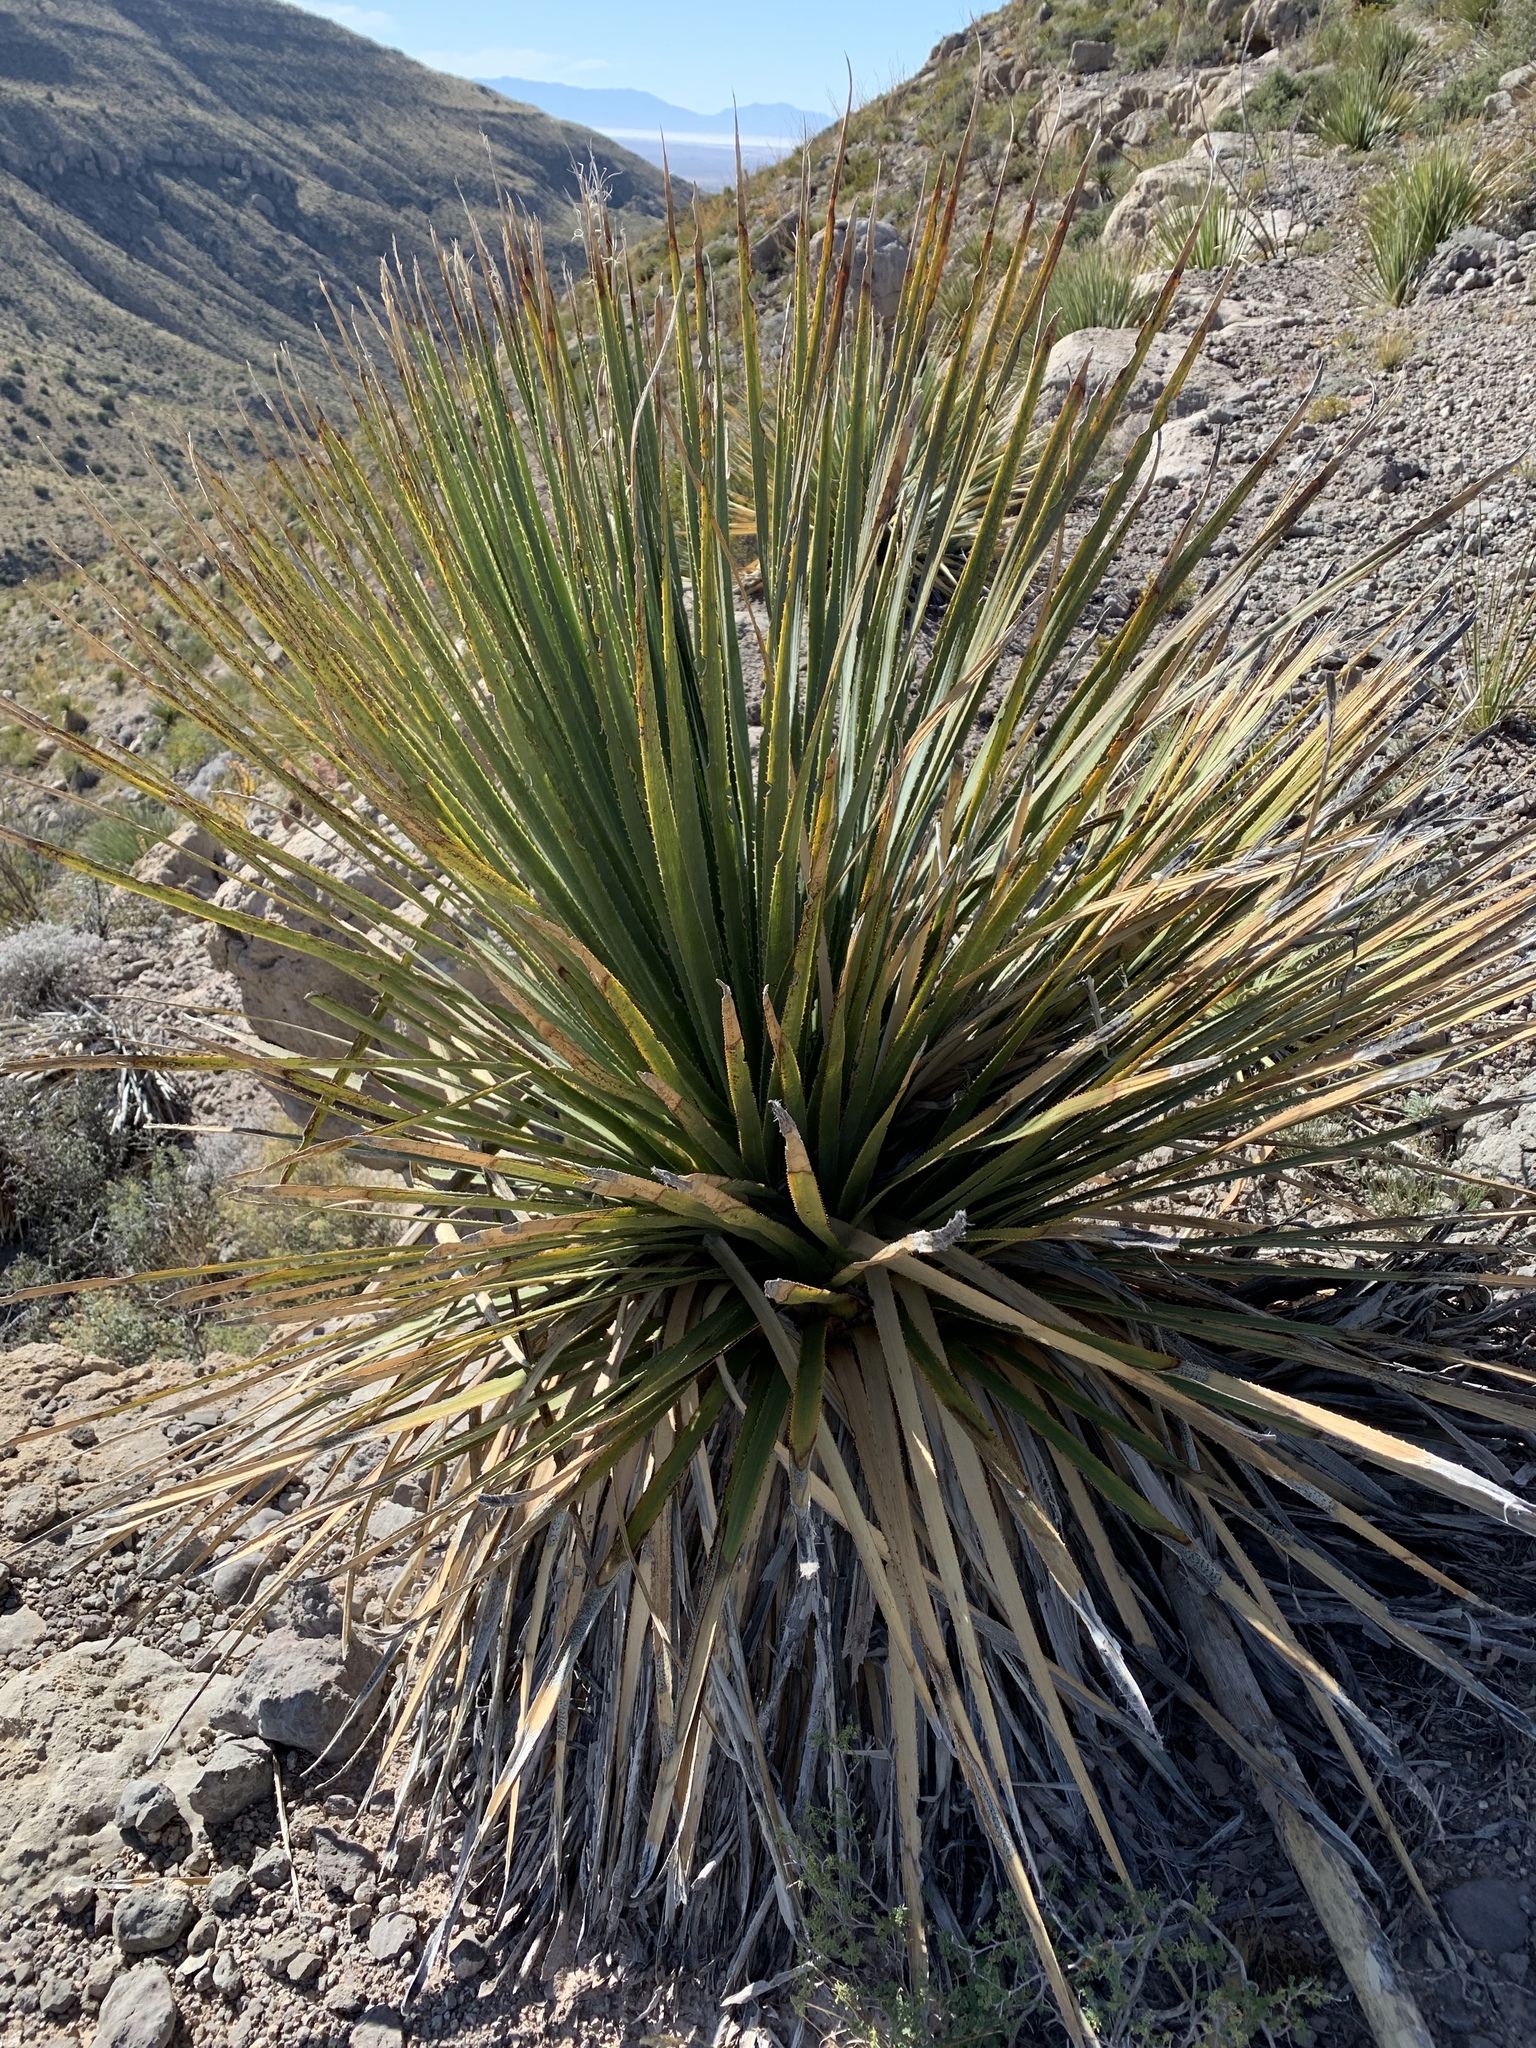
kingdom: Plantae
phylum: Tracheophyta
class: Liliopsida
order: Asparagales
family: Asparagaceae
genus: Dasylirion
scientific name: Dasylirion wheeleri
